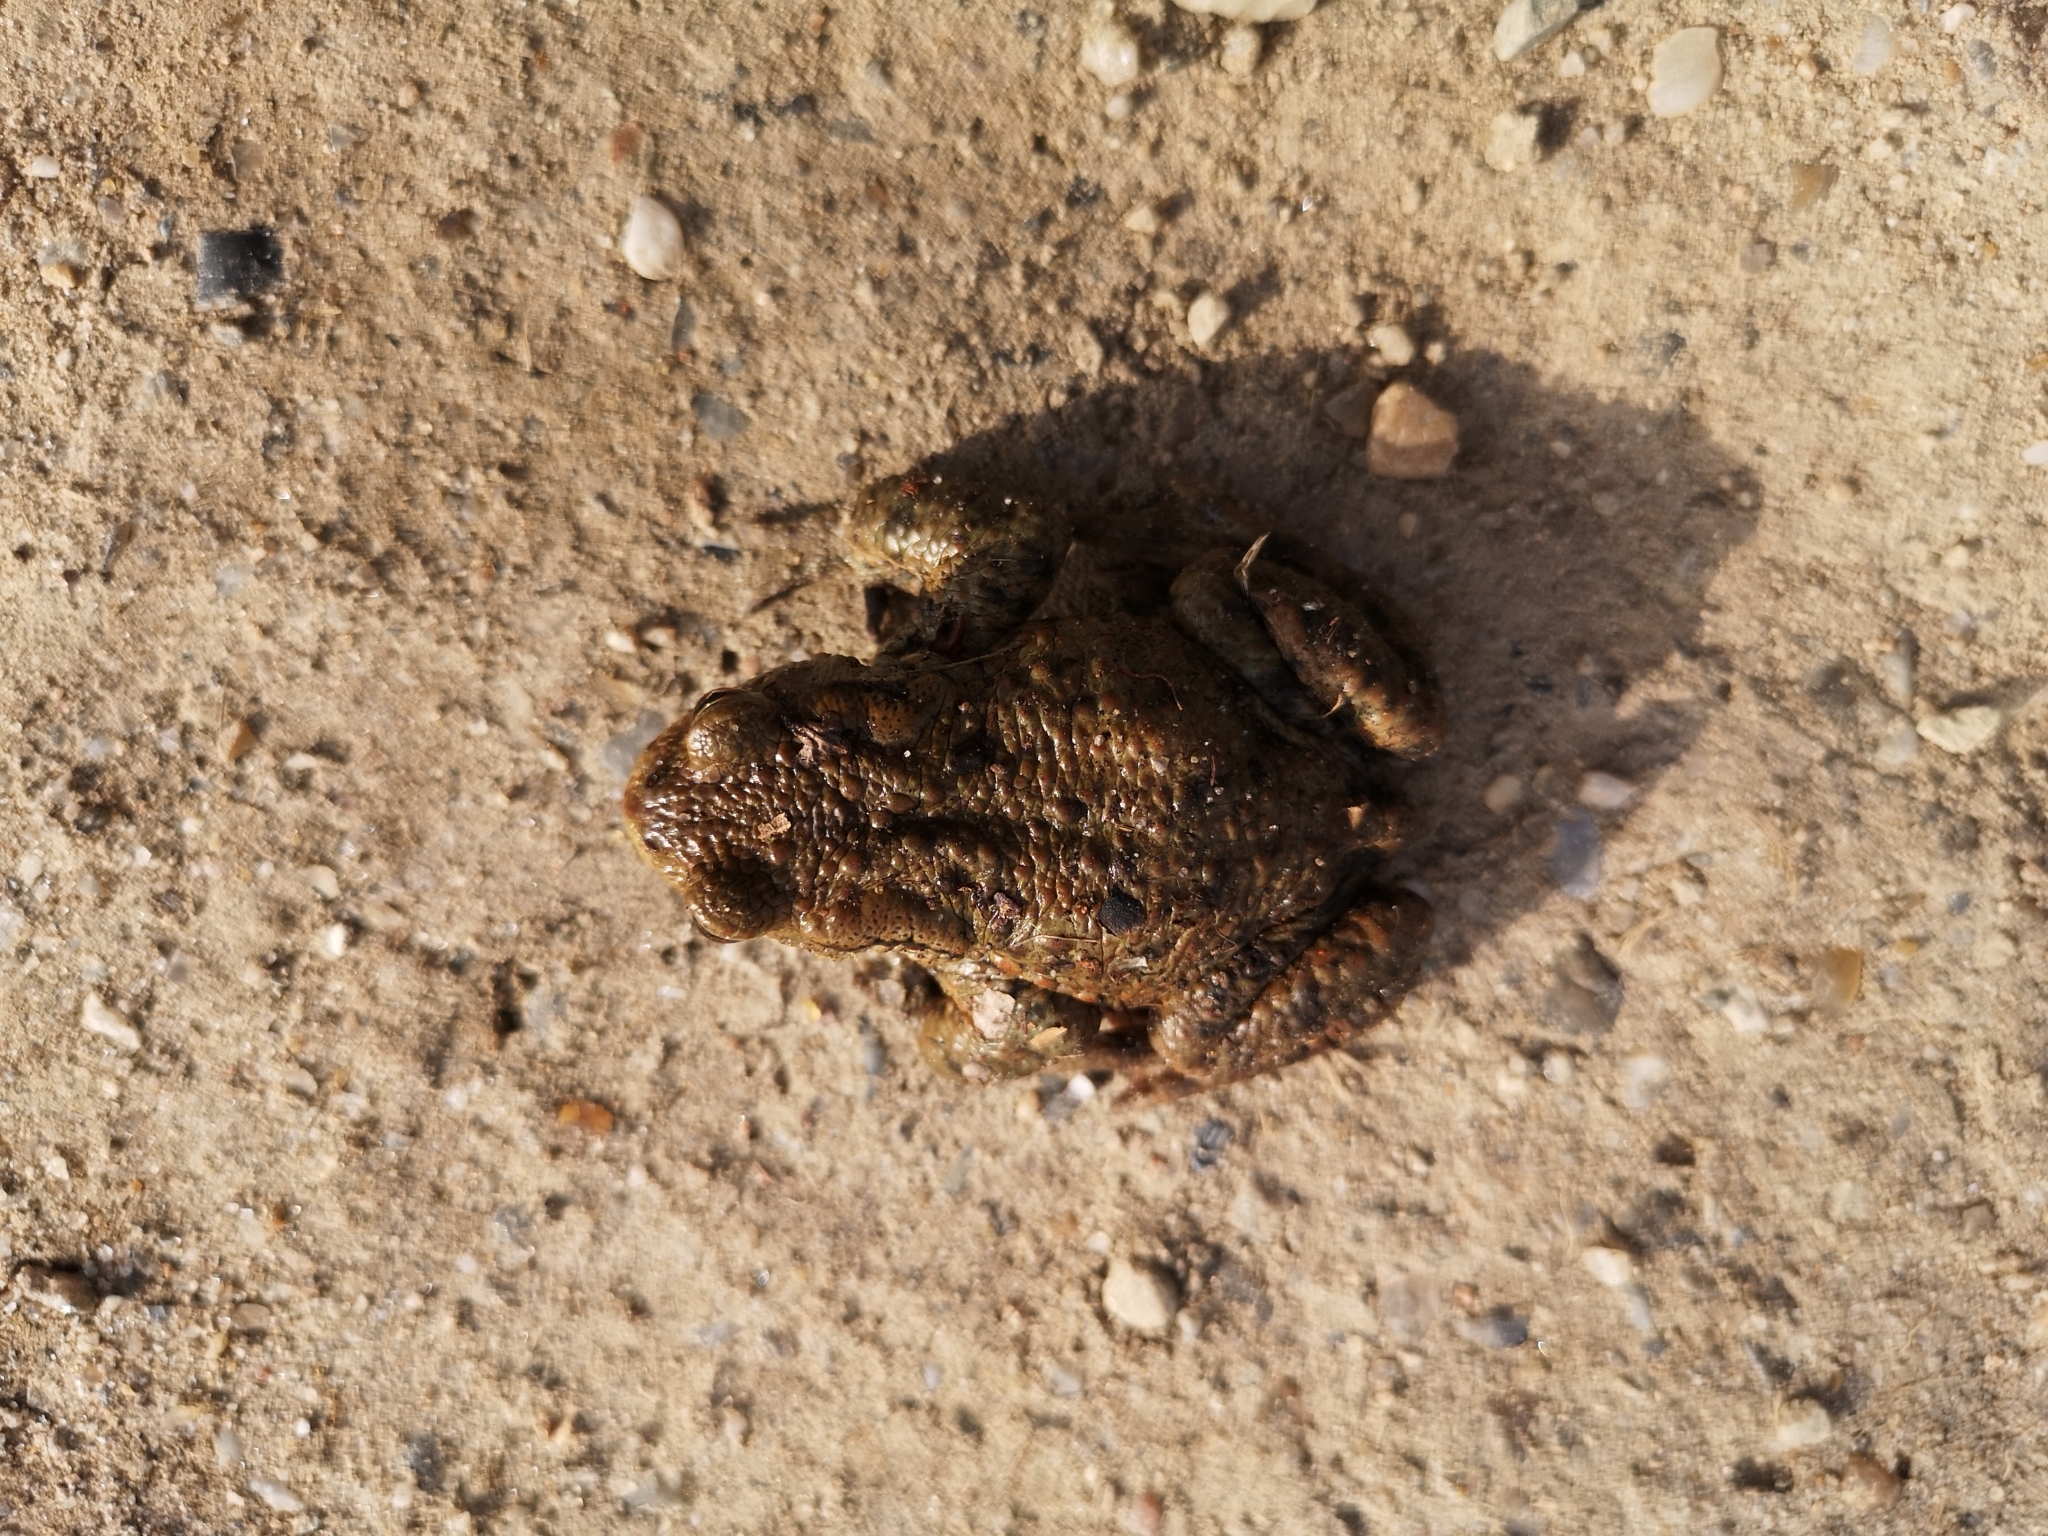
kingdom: Animalia
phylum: Chordata
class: Amphibia
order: Anura
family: Bufonidae
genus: Bufo
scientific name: Bufo bufo
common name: Common toad
